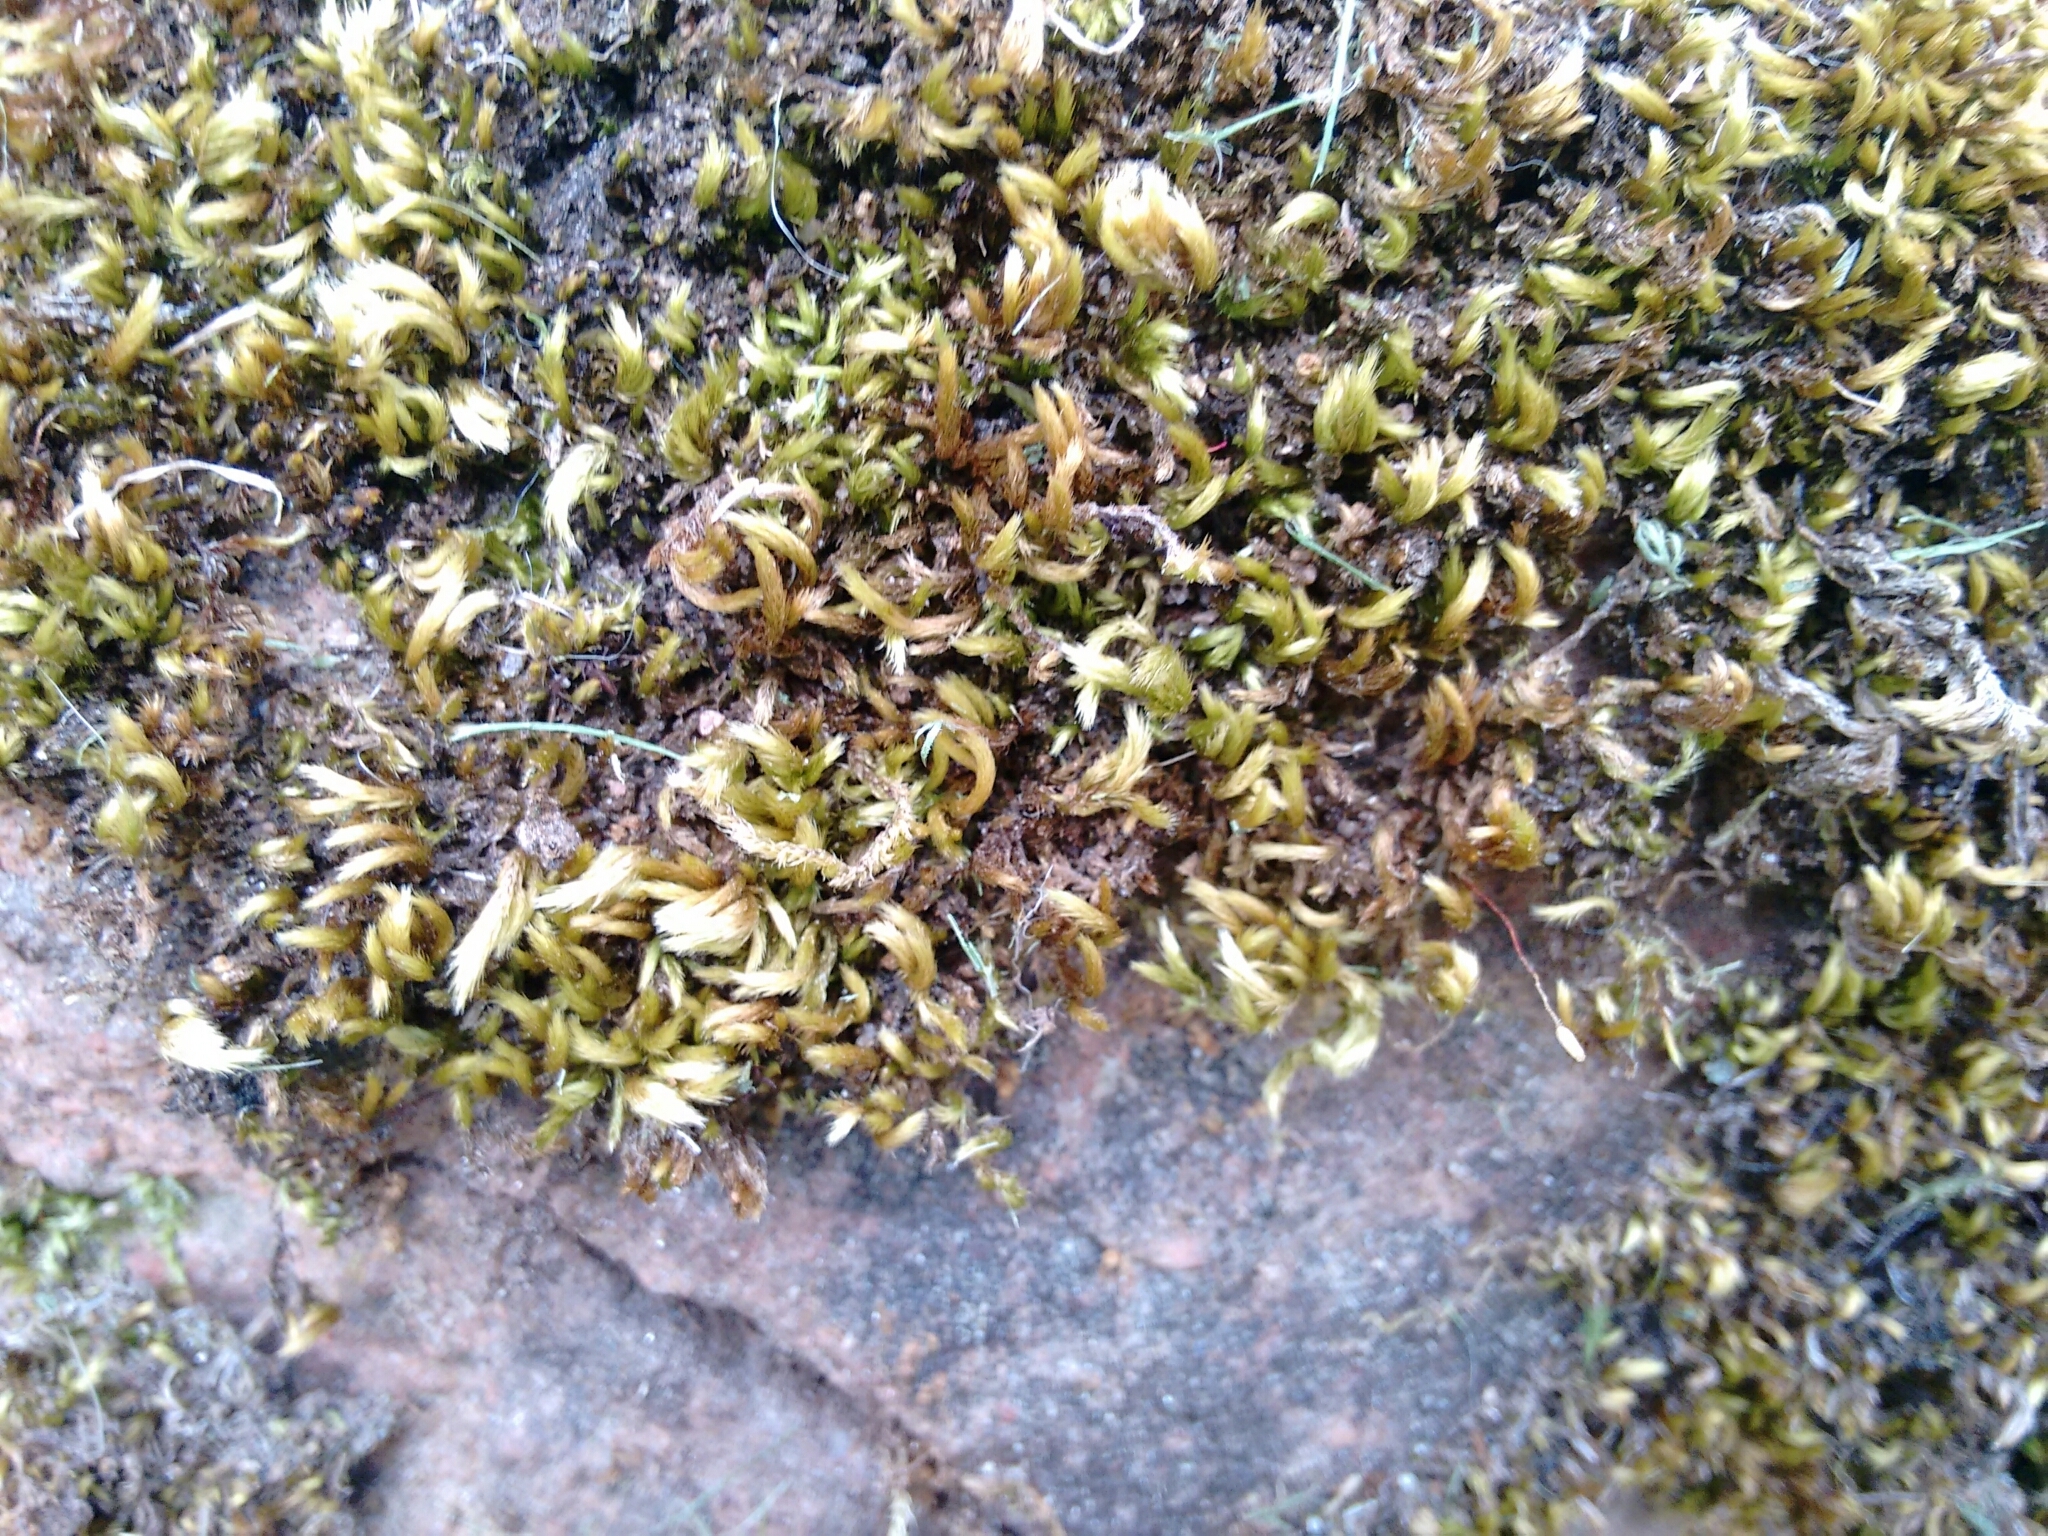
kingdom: Plantae
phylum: Bryophyta
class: Bryopsida
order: Hypnales
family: Brachytheciaceae
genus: Homalothecium
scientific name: Homalothecium sericeum
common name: Silky wall feather-moss
